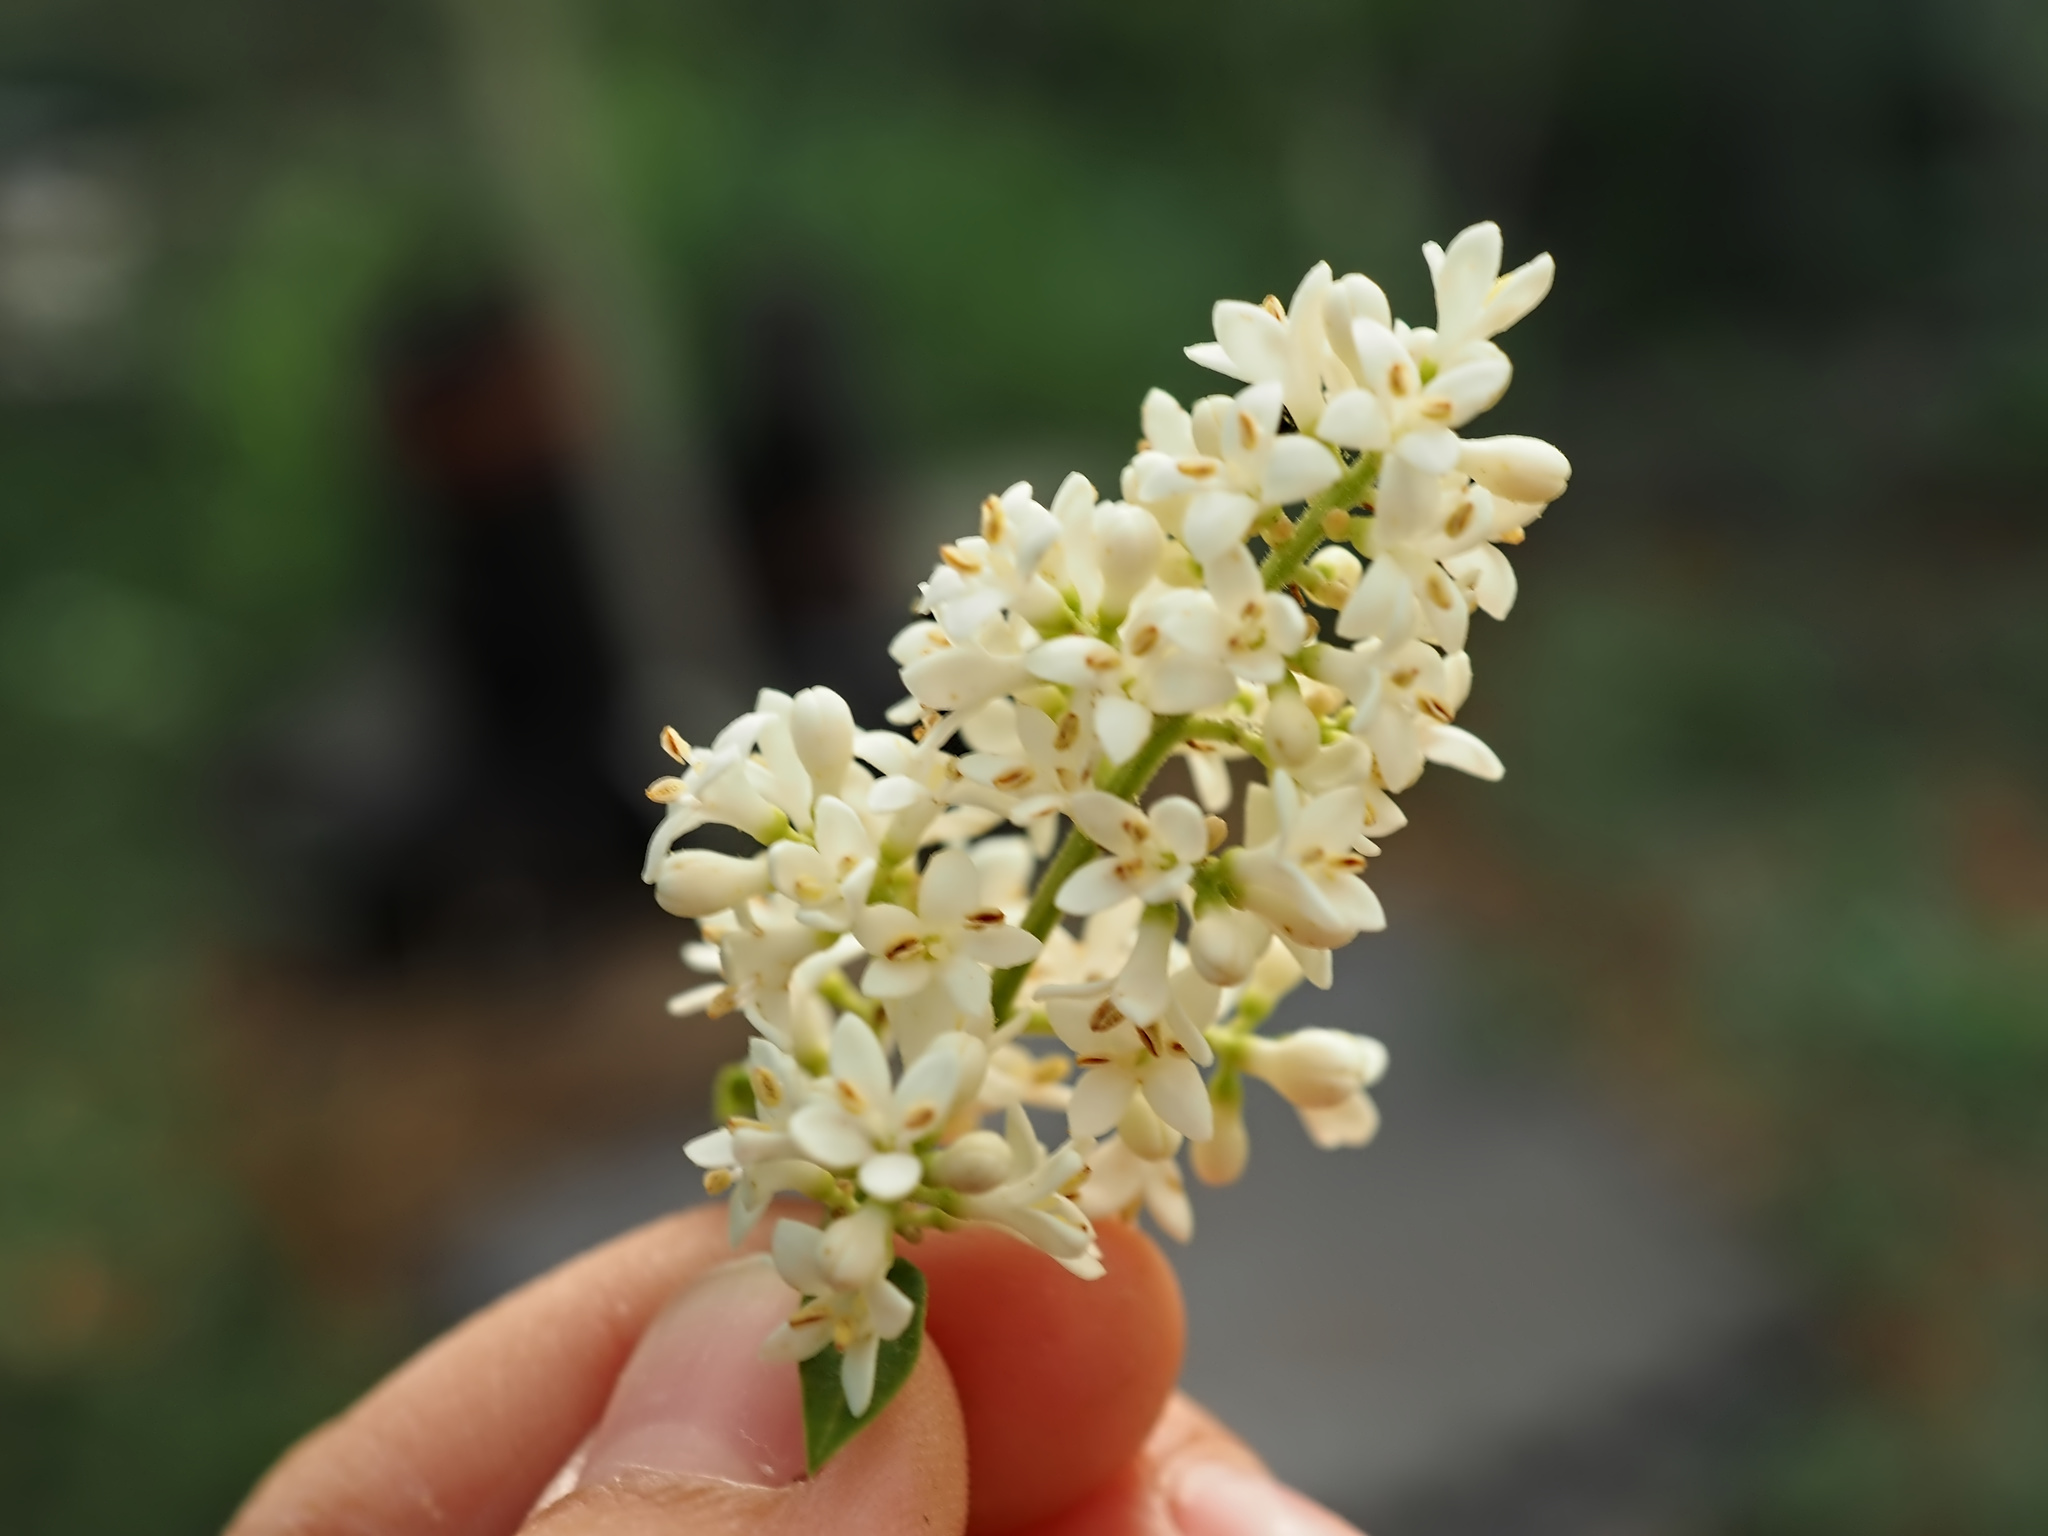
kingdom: Plantae
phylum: Tracheophyta
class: Magnoliopsida
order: Lamiales
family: Oleaceae
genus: Ligustrum
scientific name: Ligustrum vulgare
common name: Wild privet
